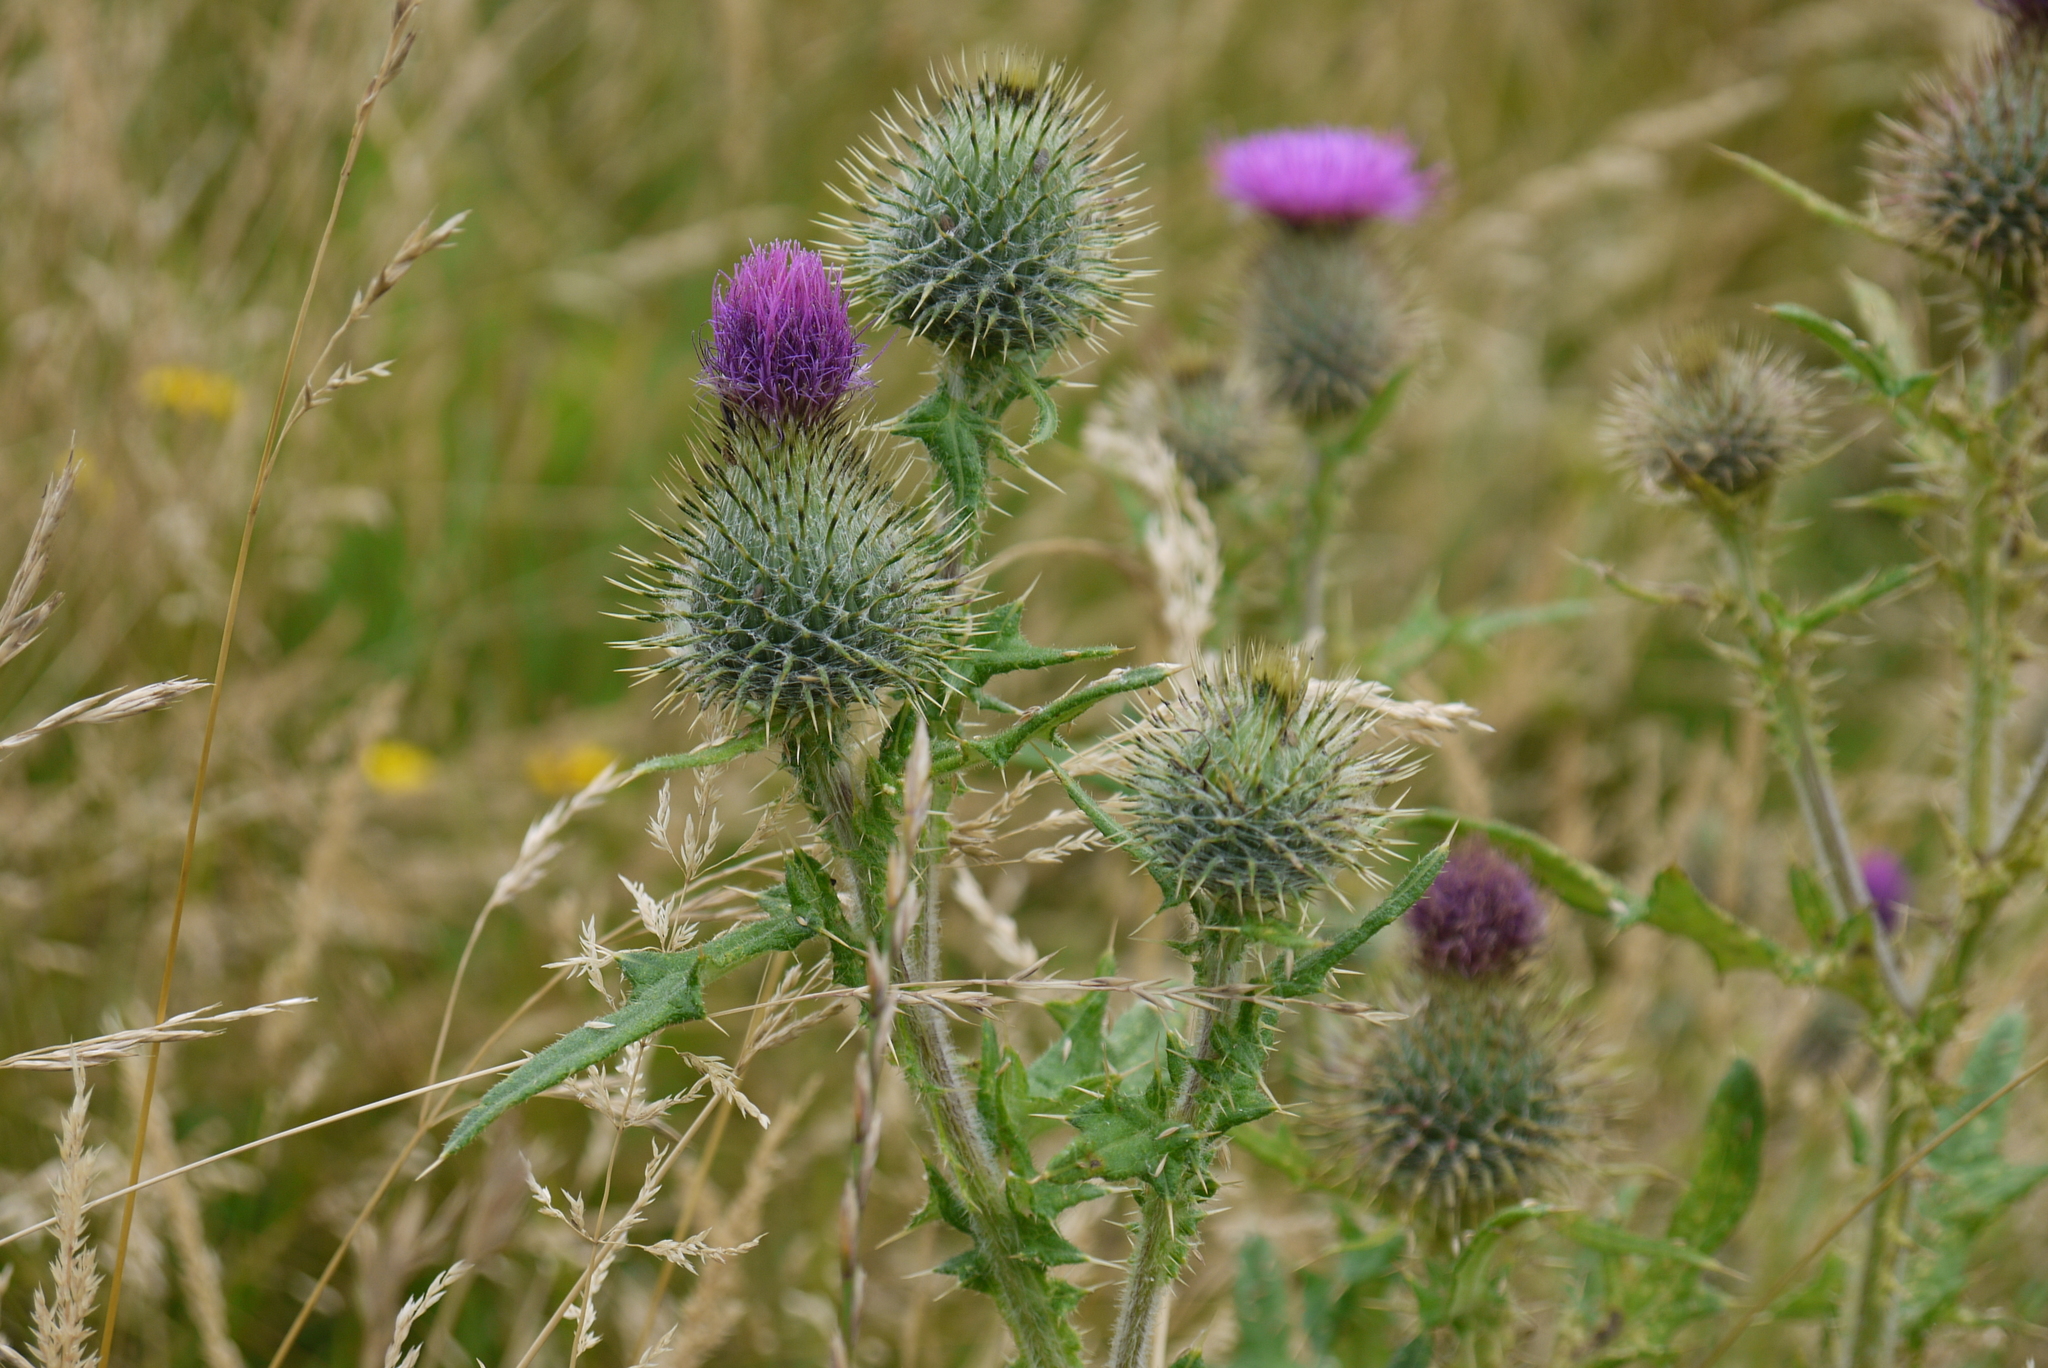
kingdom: Plantae
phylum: Tracheophyta
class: Magnoliopsida
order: Asterales
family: Asteraceae
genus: Cirsium
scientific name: Cirsium vulgare
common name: Bull thistle
